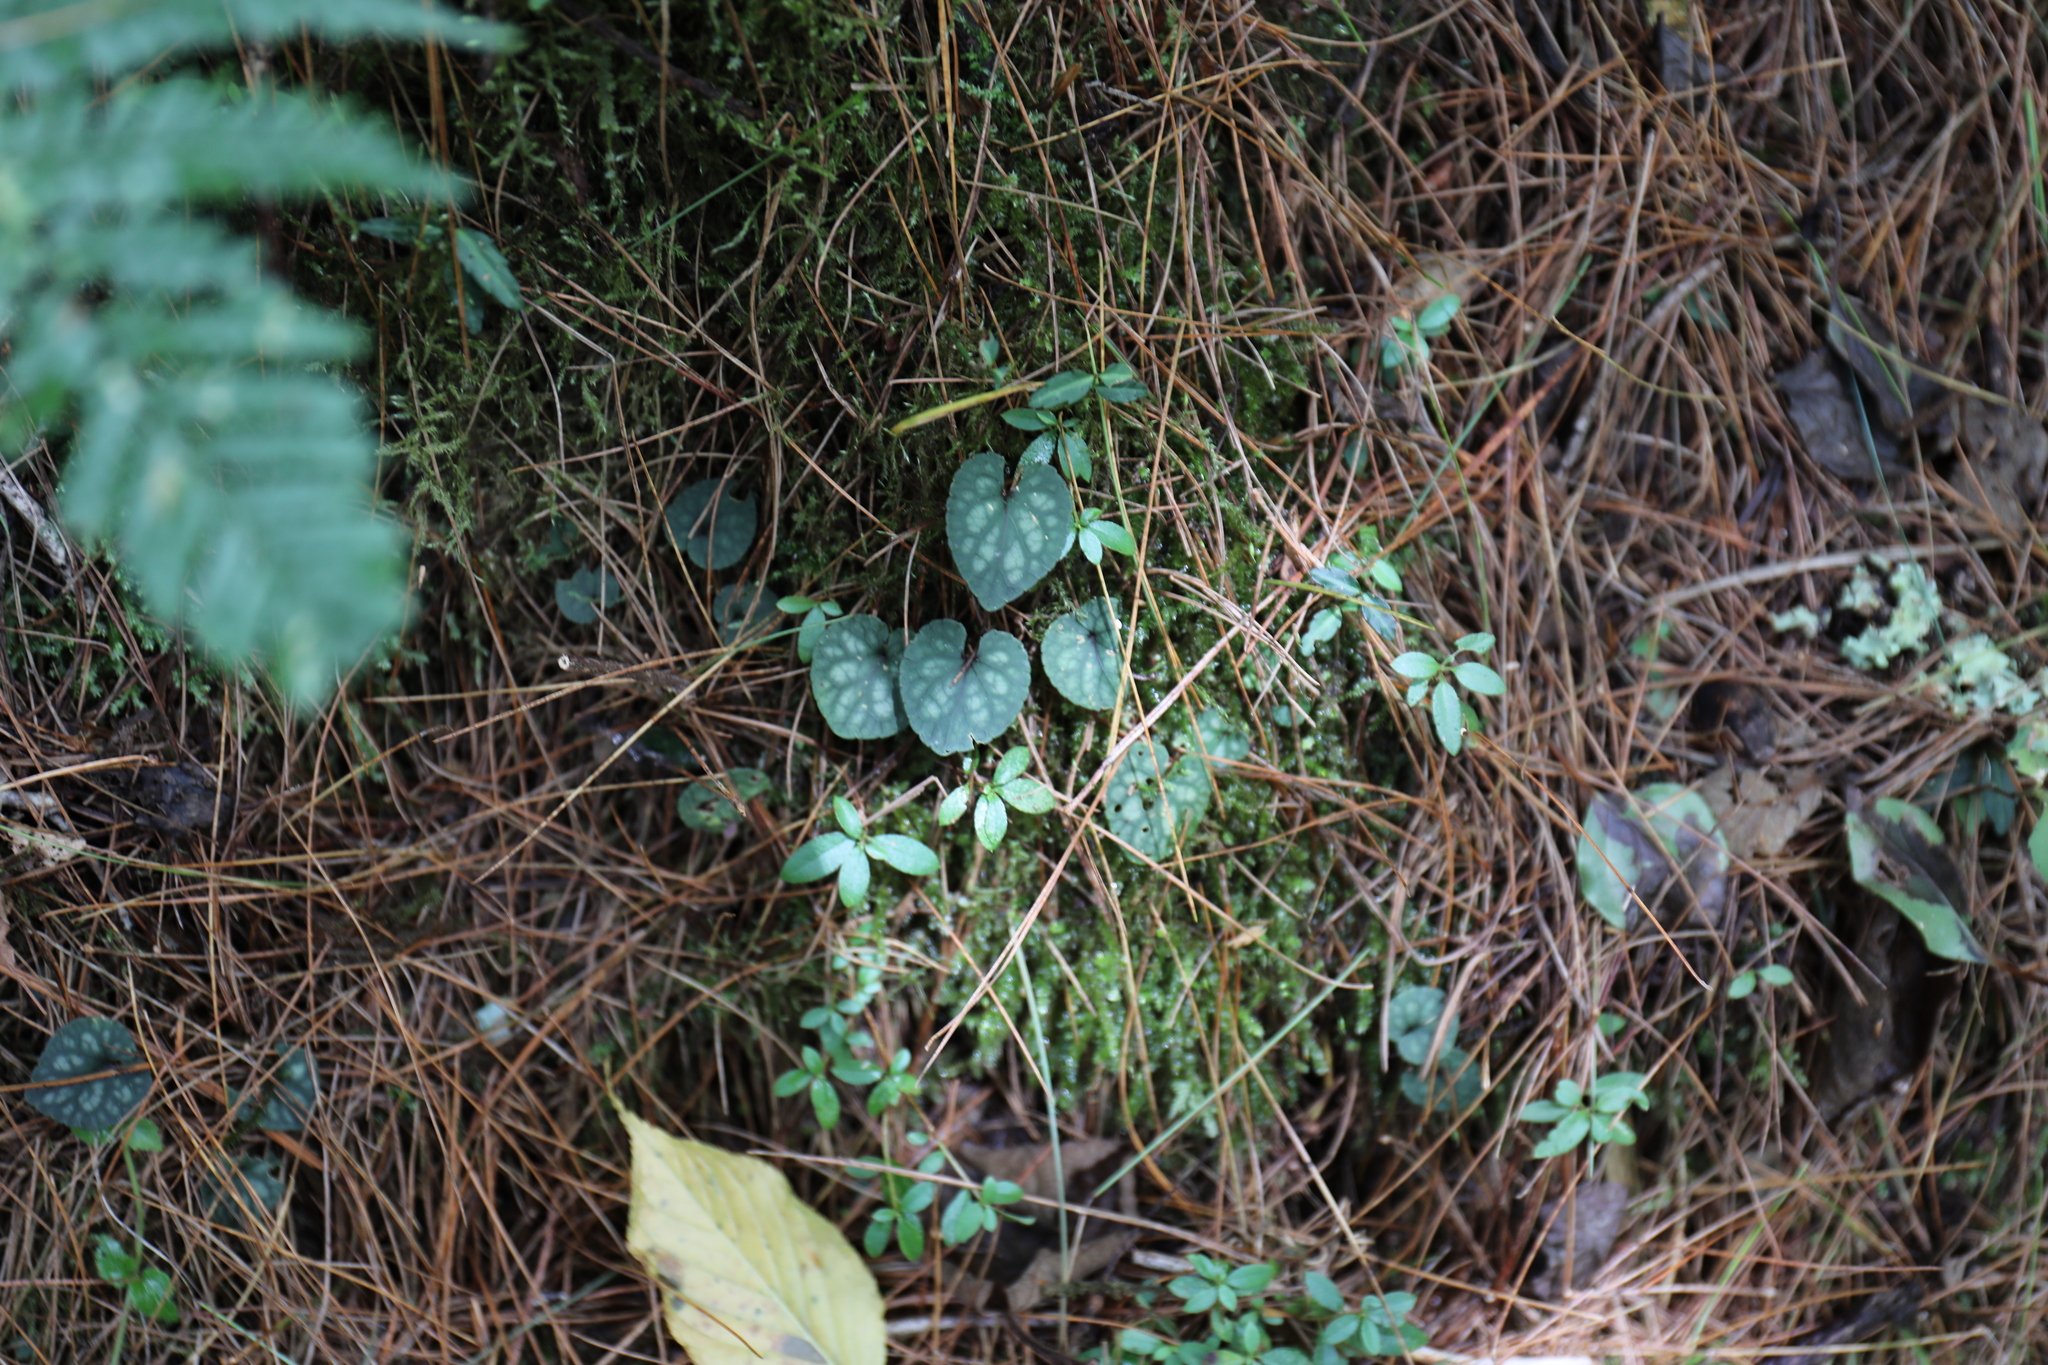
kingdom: Plantae
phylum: Tracheophyta
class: Magnoliopsida
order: Malpighiales
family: Violaceae
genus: Viola
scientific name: Viola formosana
